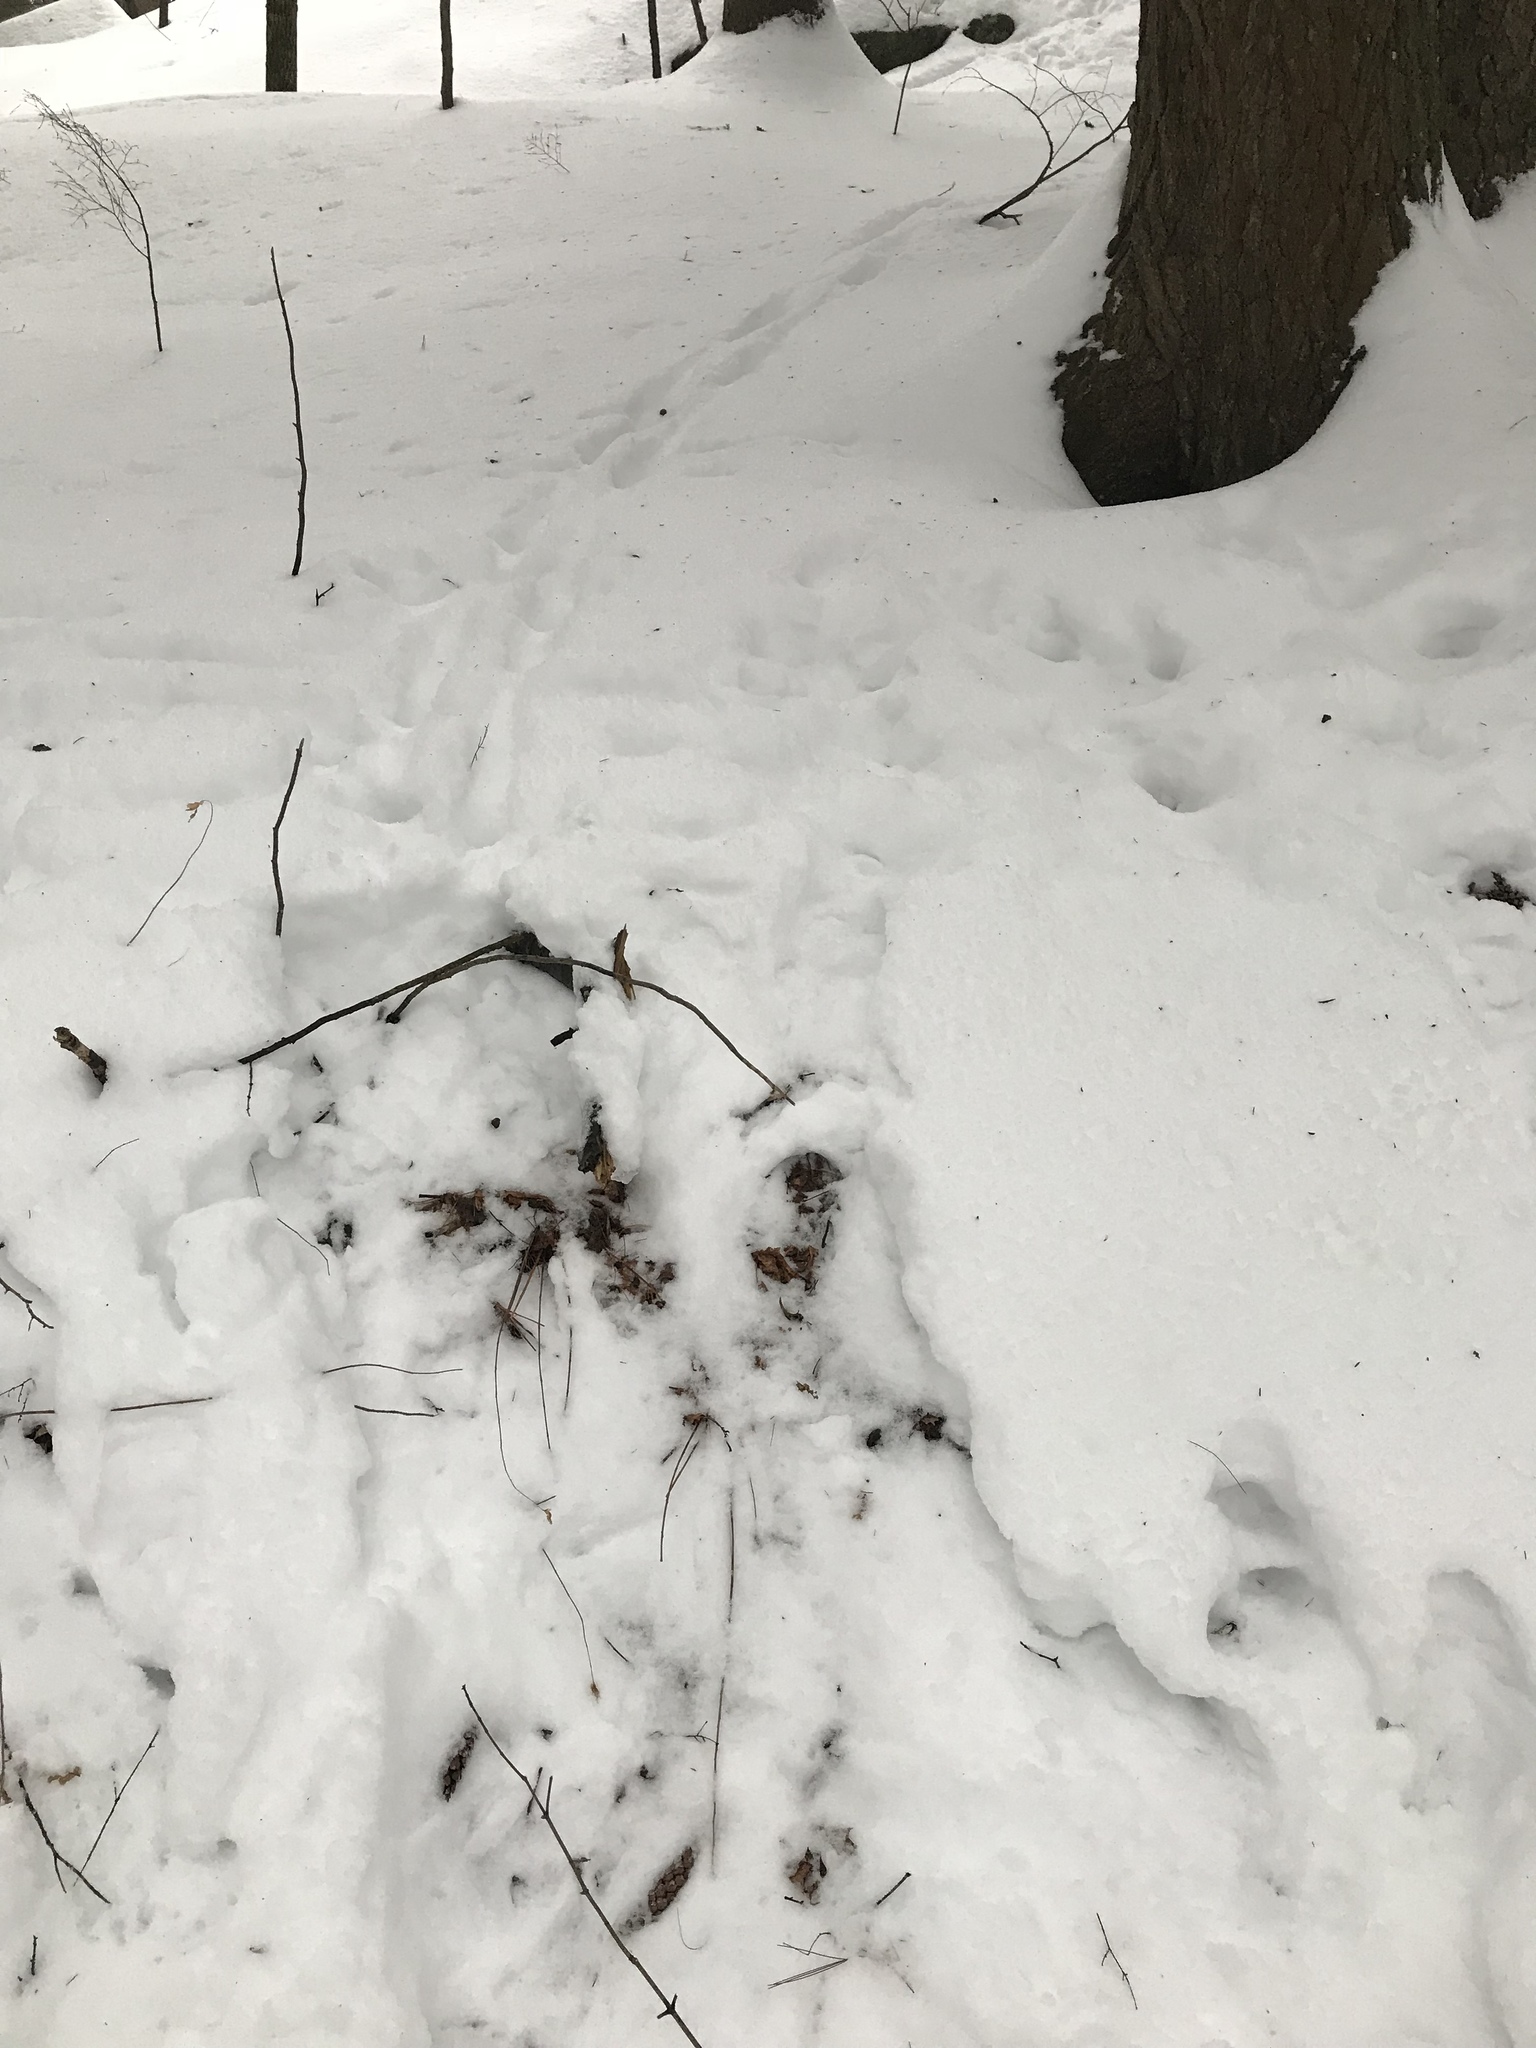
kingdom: Animalia
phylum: Chordata
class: Mammalia
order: Artiodactyla
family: Cervidae
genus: Odocoileus
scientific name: Odocoileus virginianus
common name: White-tailed deer
